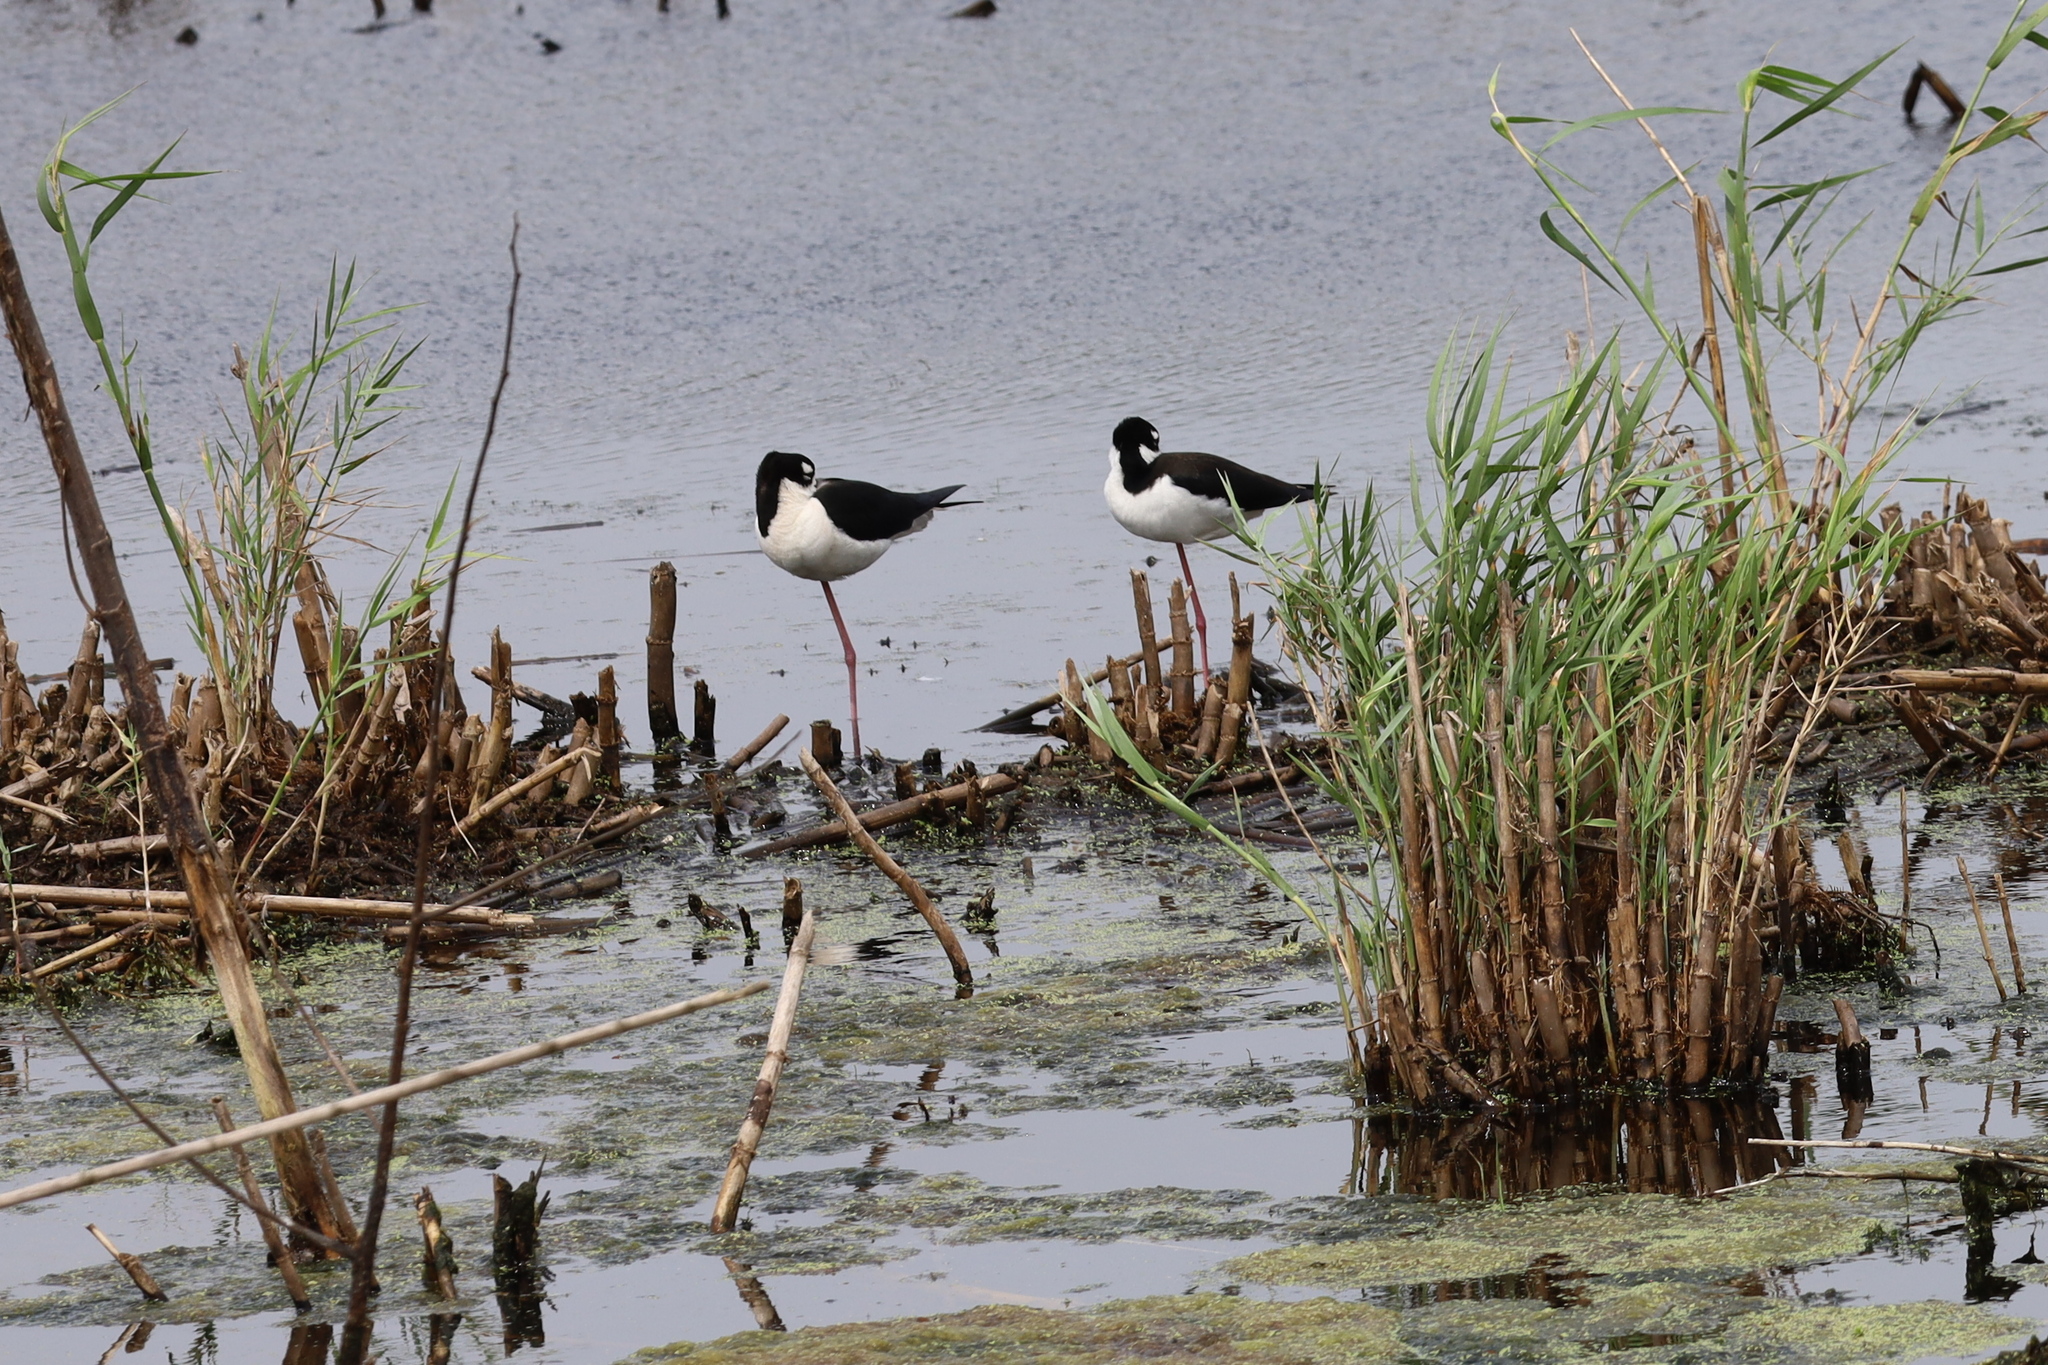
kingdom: Animalia
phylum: Chordata
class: Aves
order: Charadriiformes
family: Recurvirostridae
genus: Himantopus
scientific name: Himantopus mexicanus
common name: Black-necked stilt
